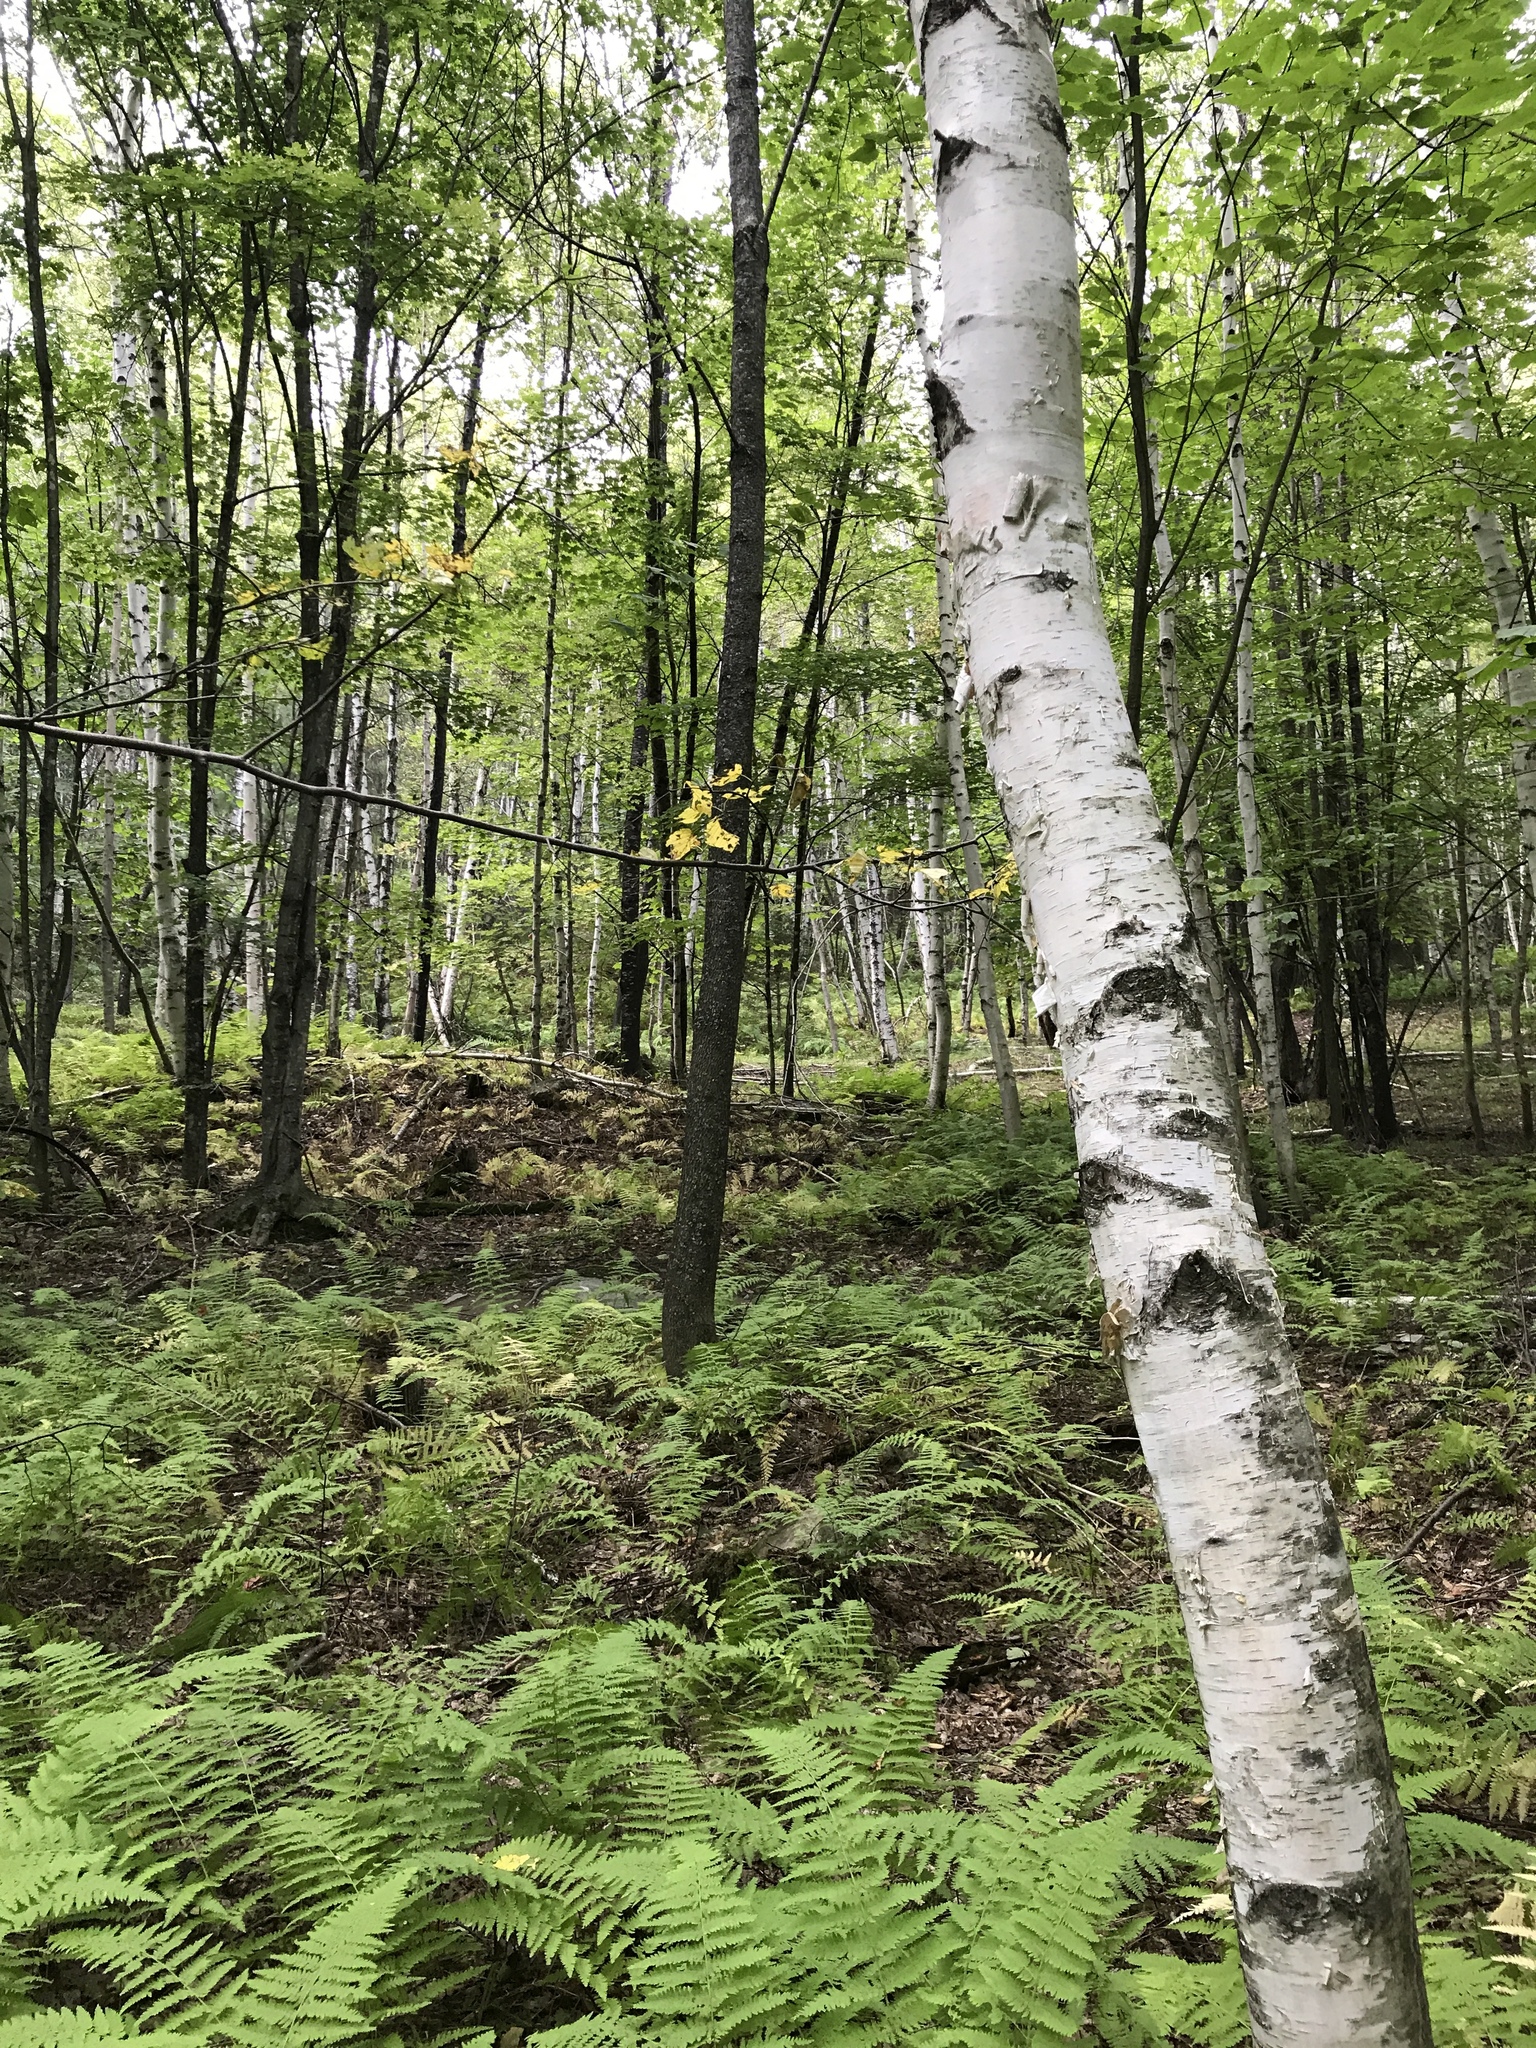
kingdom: Plantae
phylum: Tracheophyta
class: Magnoliopsida
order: Fagales
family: Betulaceae
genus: Betula
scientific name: Betula papyrifera
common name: Paper birch
